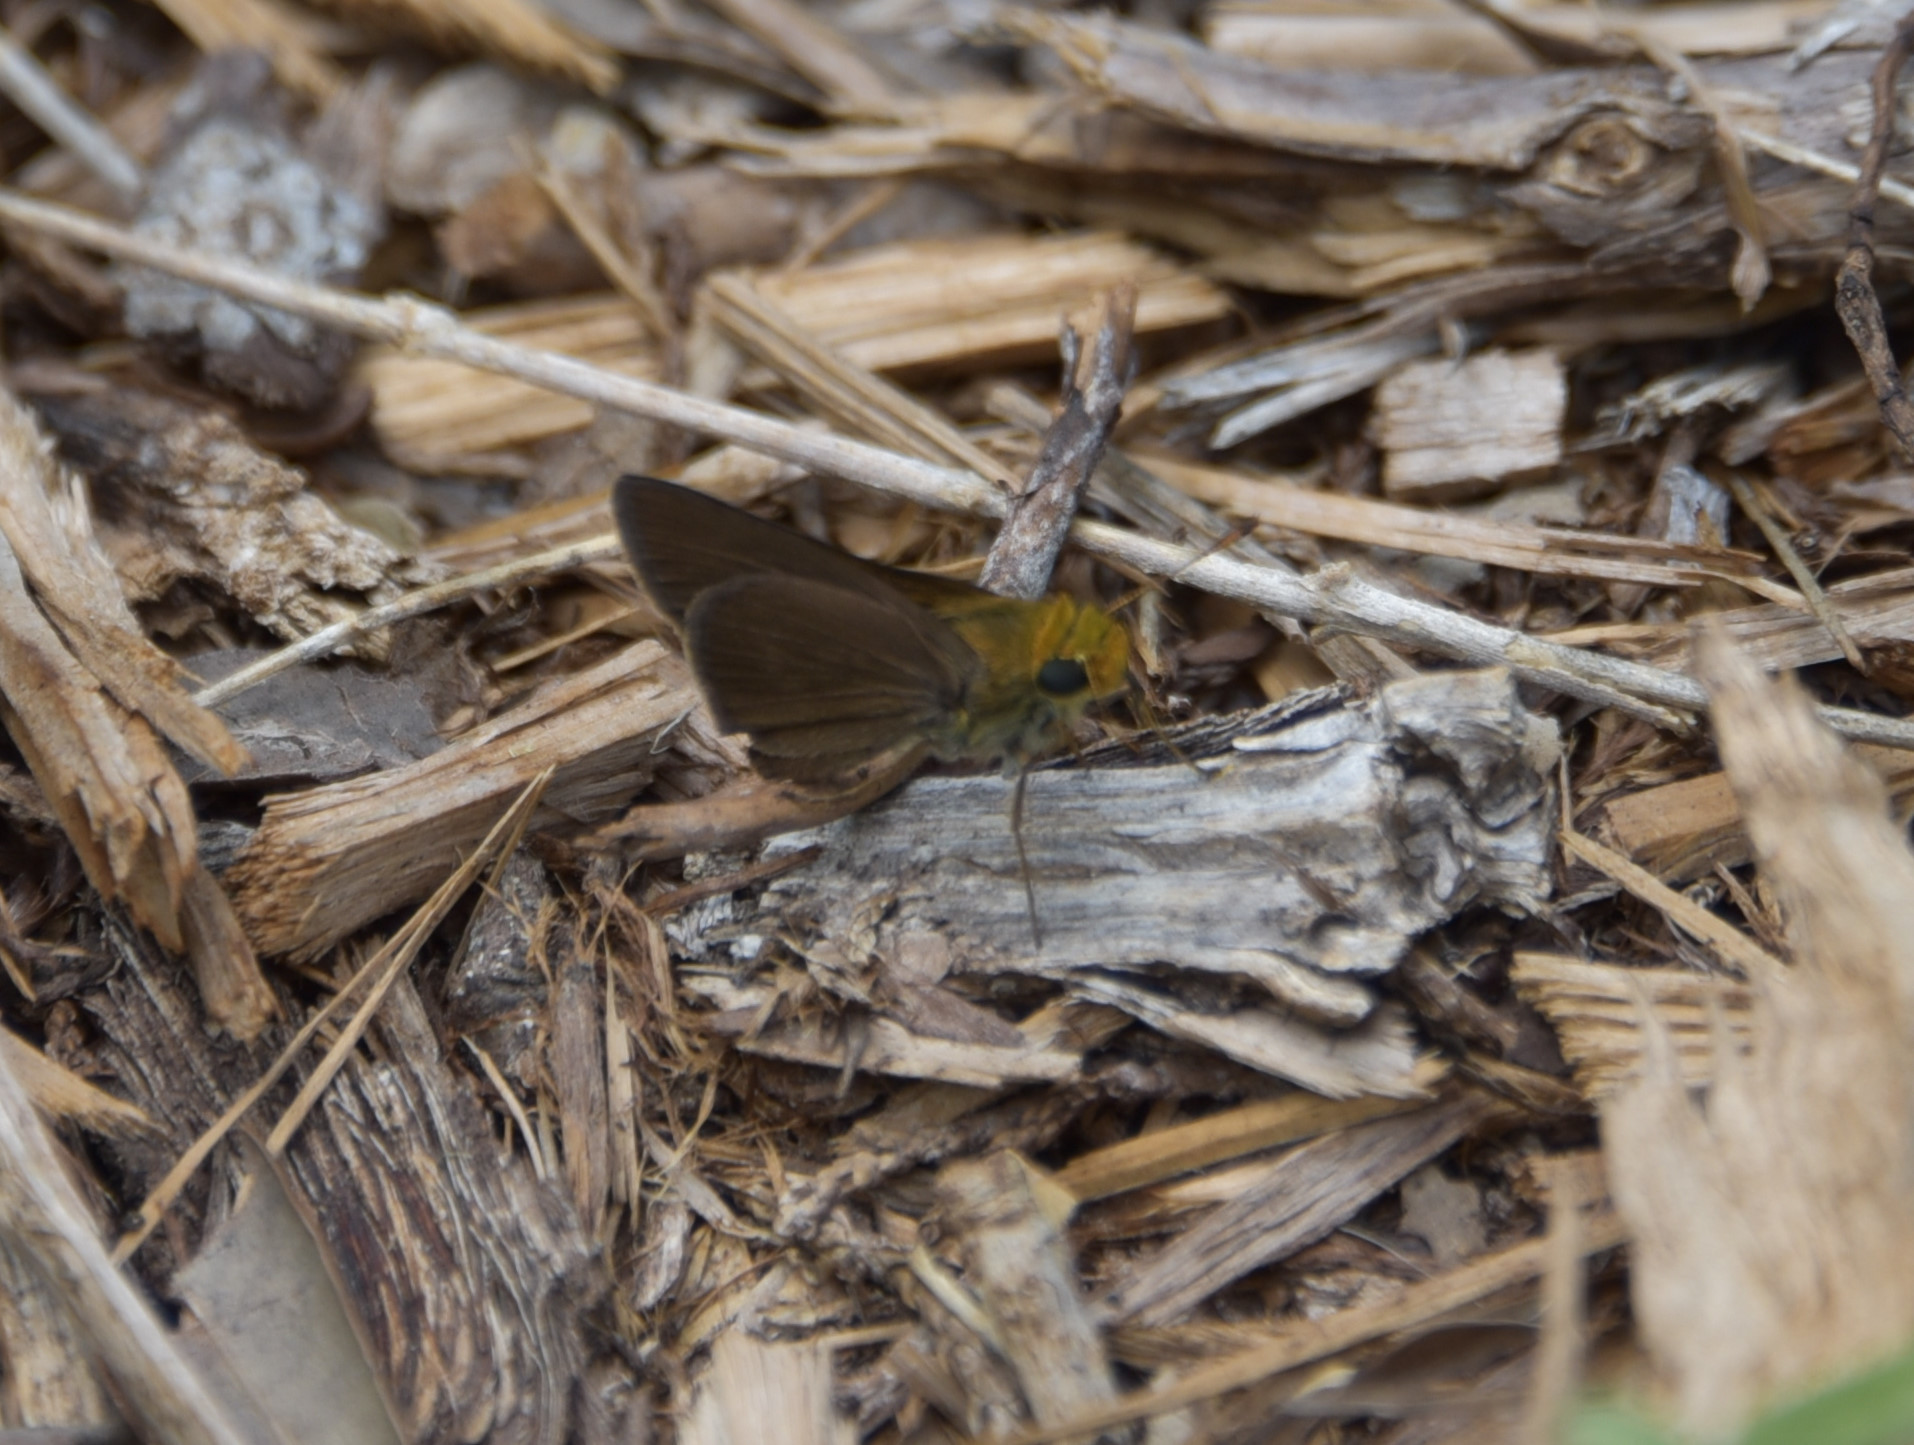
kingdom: Animalia
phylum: Arthropoda
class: Insecta
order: Lepidoptera
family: Hesperiidae
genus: Euphyes
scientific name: Euphyes vestris
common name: Dun skipper
